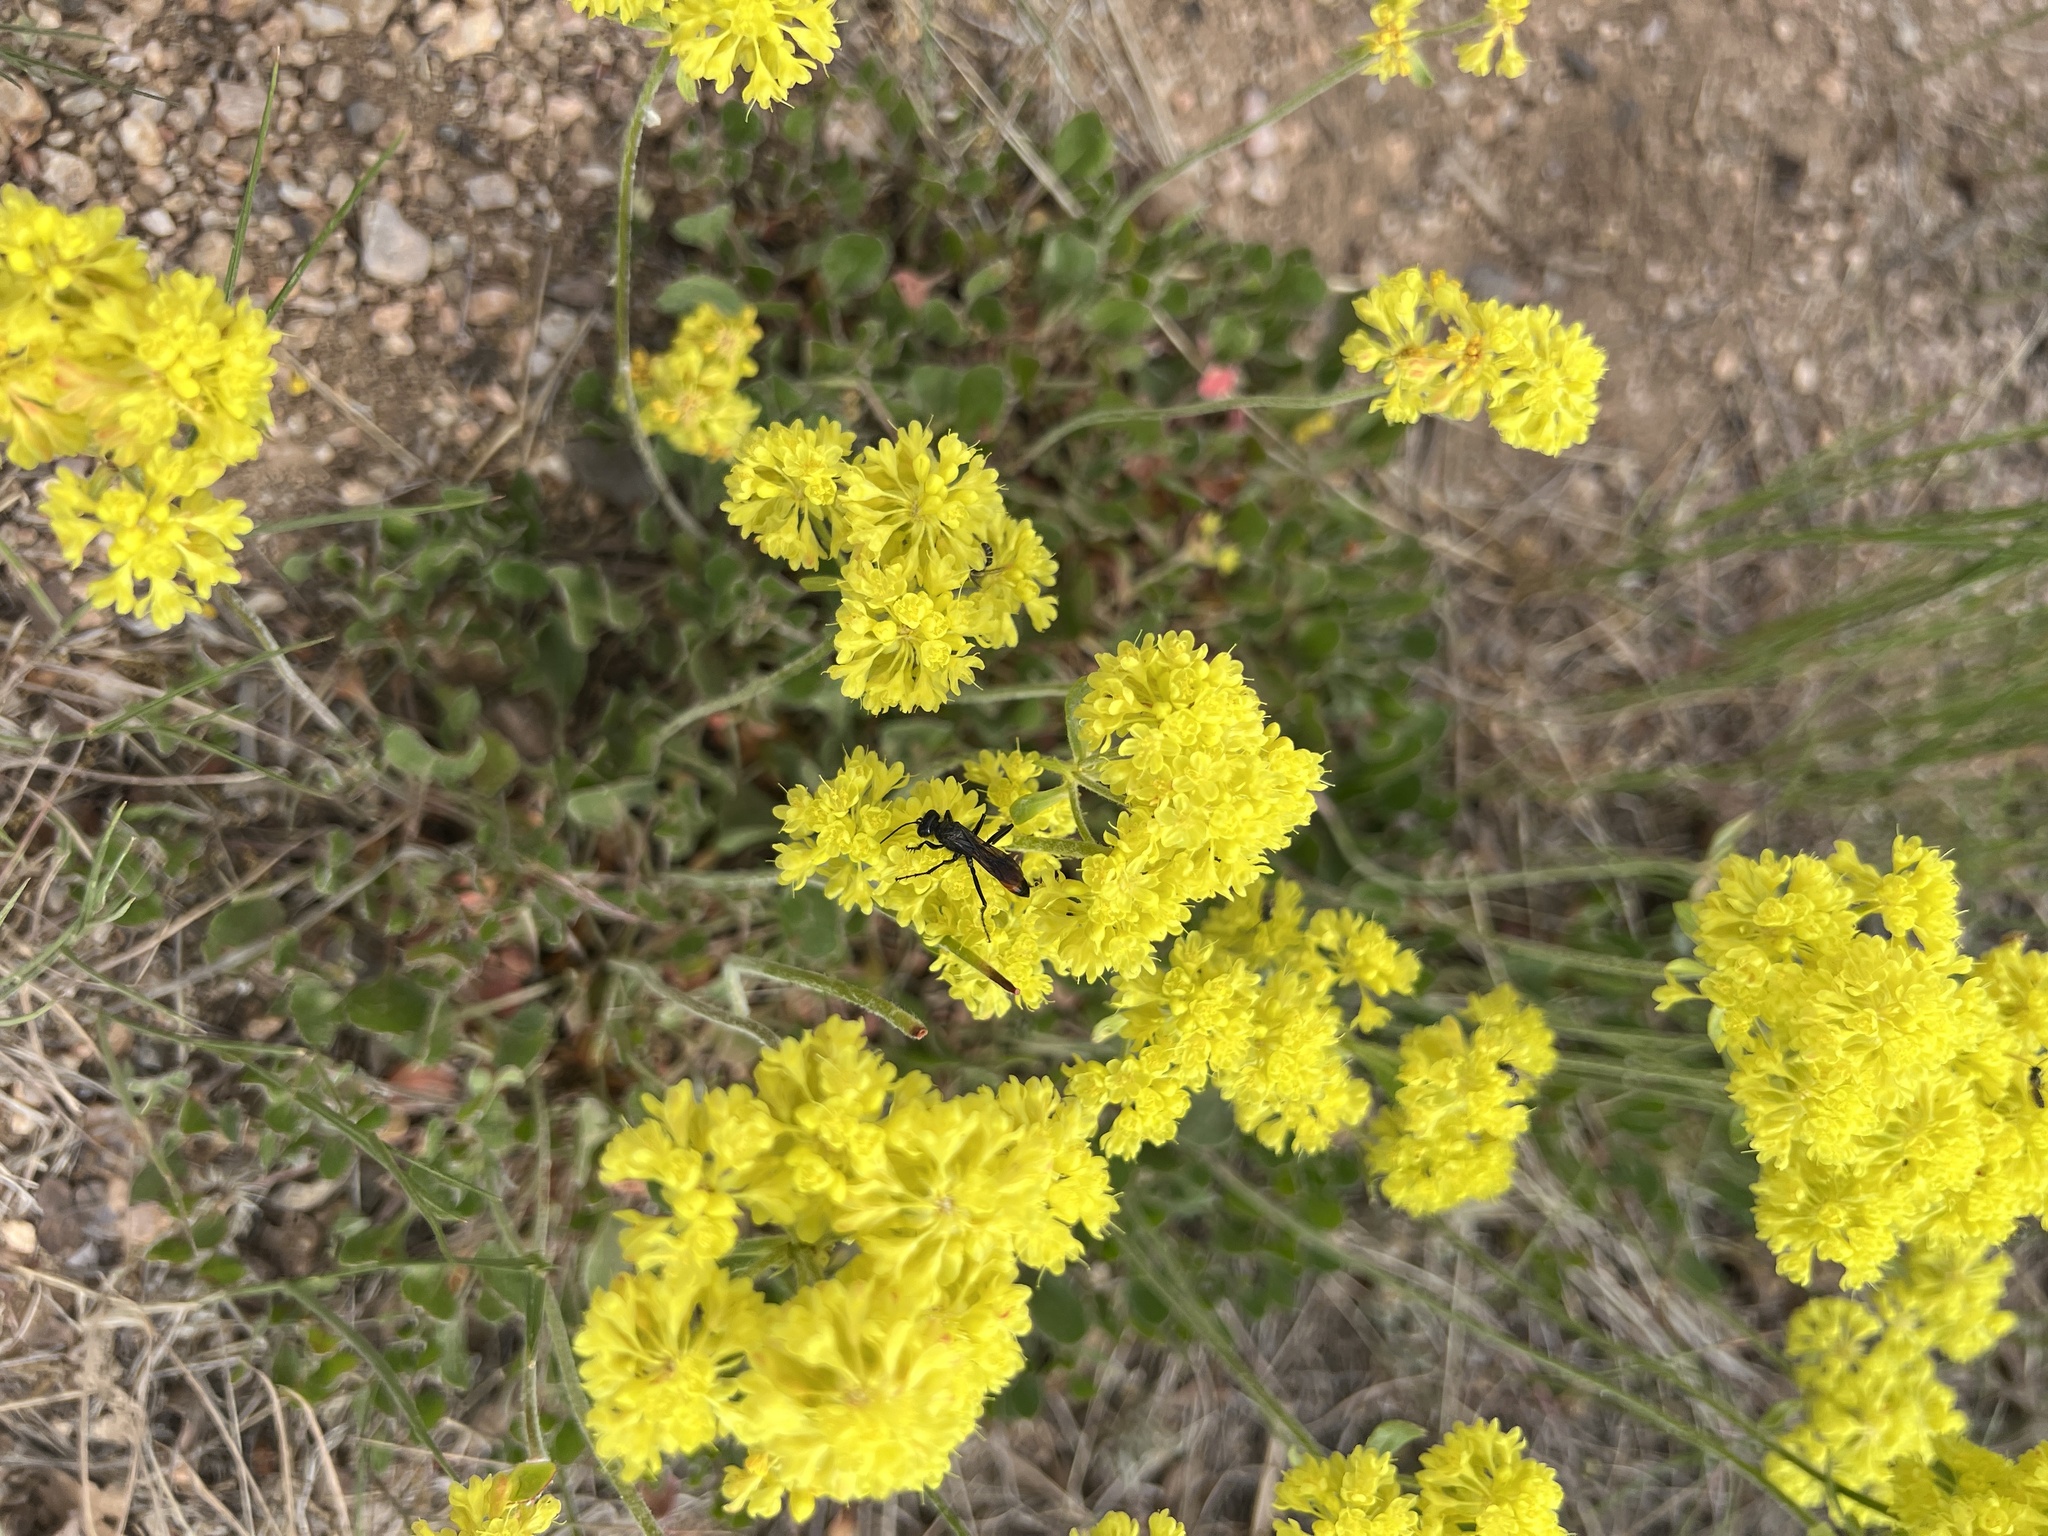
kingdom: Plantae
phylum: Tracheophyta
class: Magnoliopsida
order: Caryophyllales
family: Polygonaceae
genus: Eriogonum
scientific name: Eriogonum umbellatum
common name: Sulfur-buckwheat
